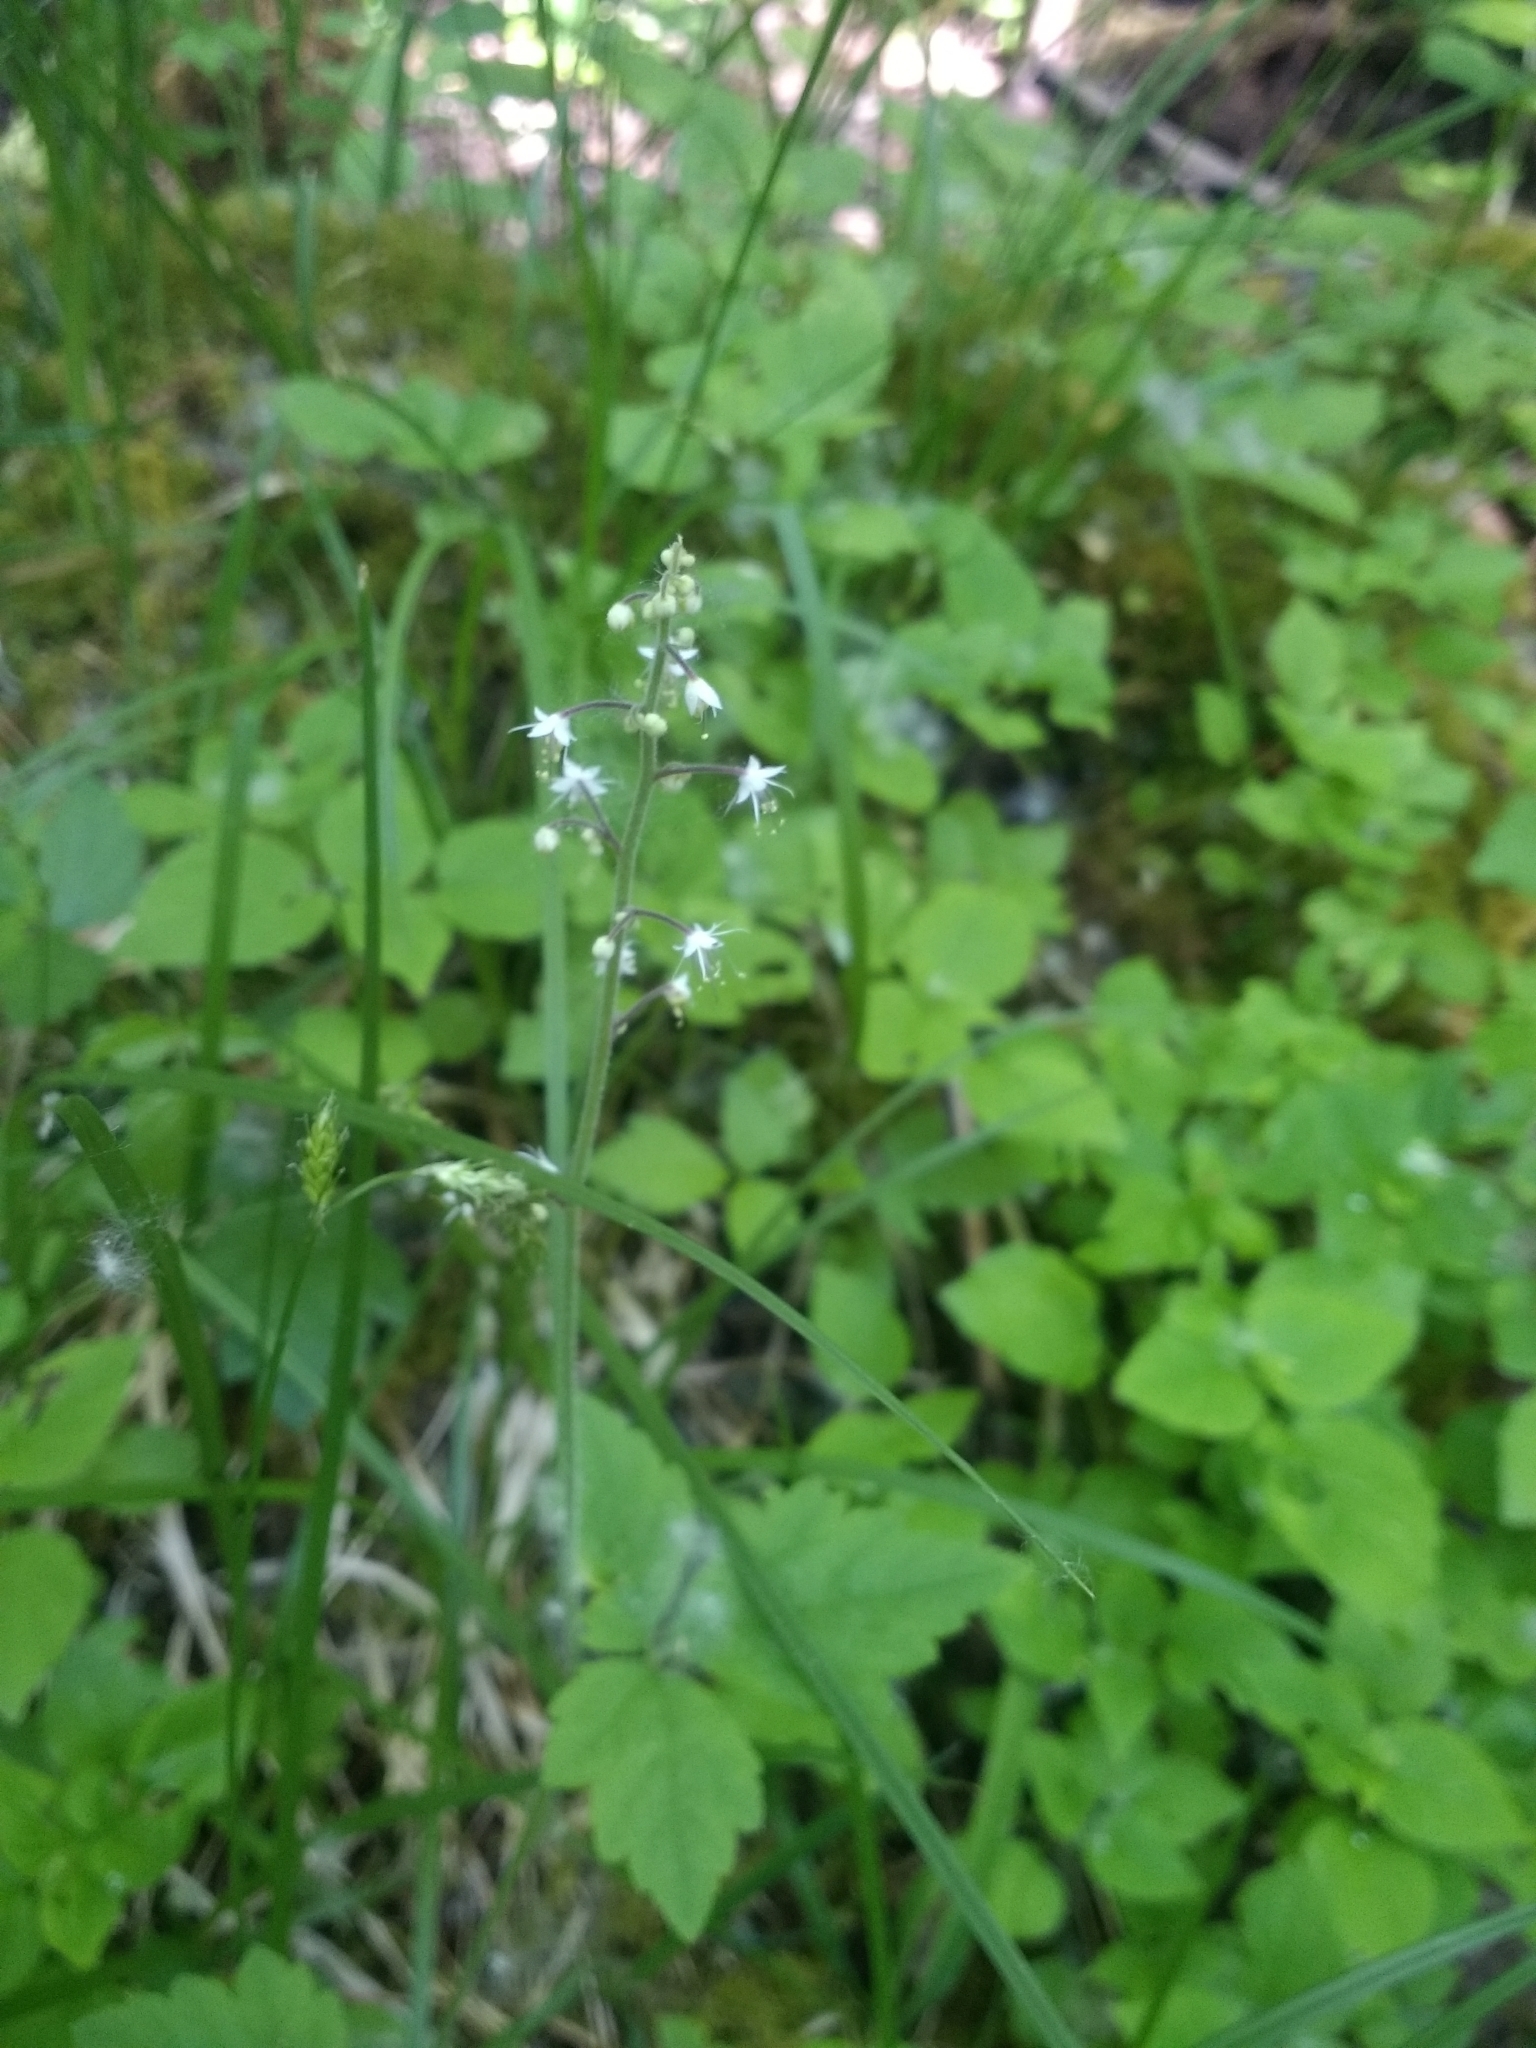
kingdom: Plantae
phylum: Tracheophyta
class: Magnoliopsida
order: Saxifragales
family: Saxifragaceae
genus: Tiarella
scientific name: Tiarella trifoliata
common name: Sugar-scoop
